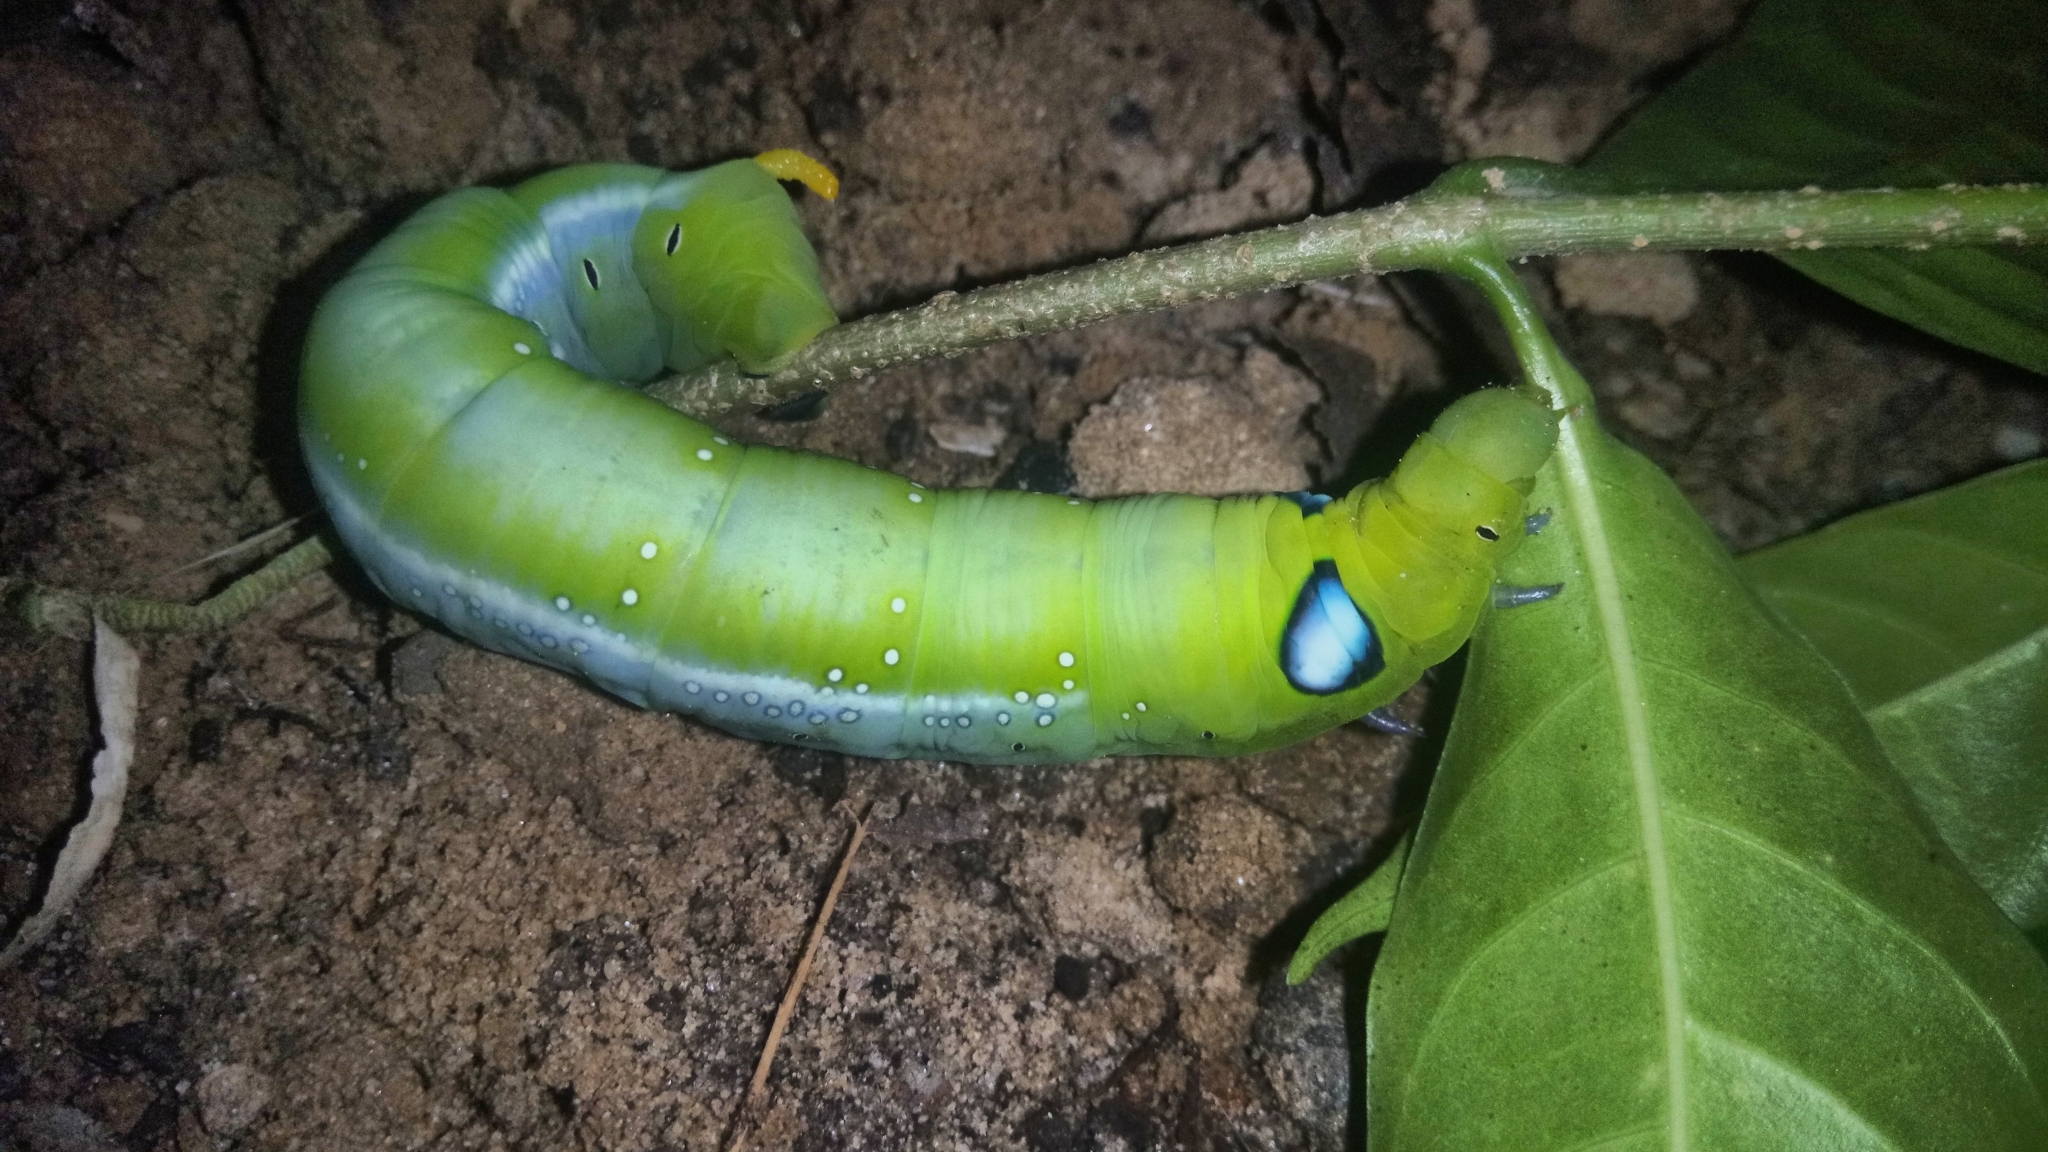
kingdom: Animalia
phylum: Arthropoda
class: Insecta
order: Lepidoptera
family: Sphingidae
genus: Daphnis
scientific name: Daphnis nerii
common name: Oleander hawk-moth
